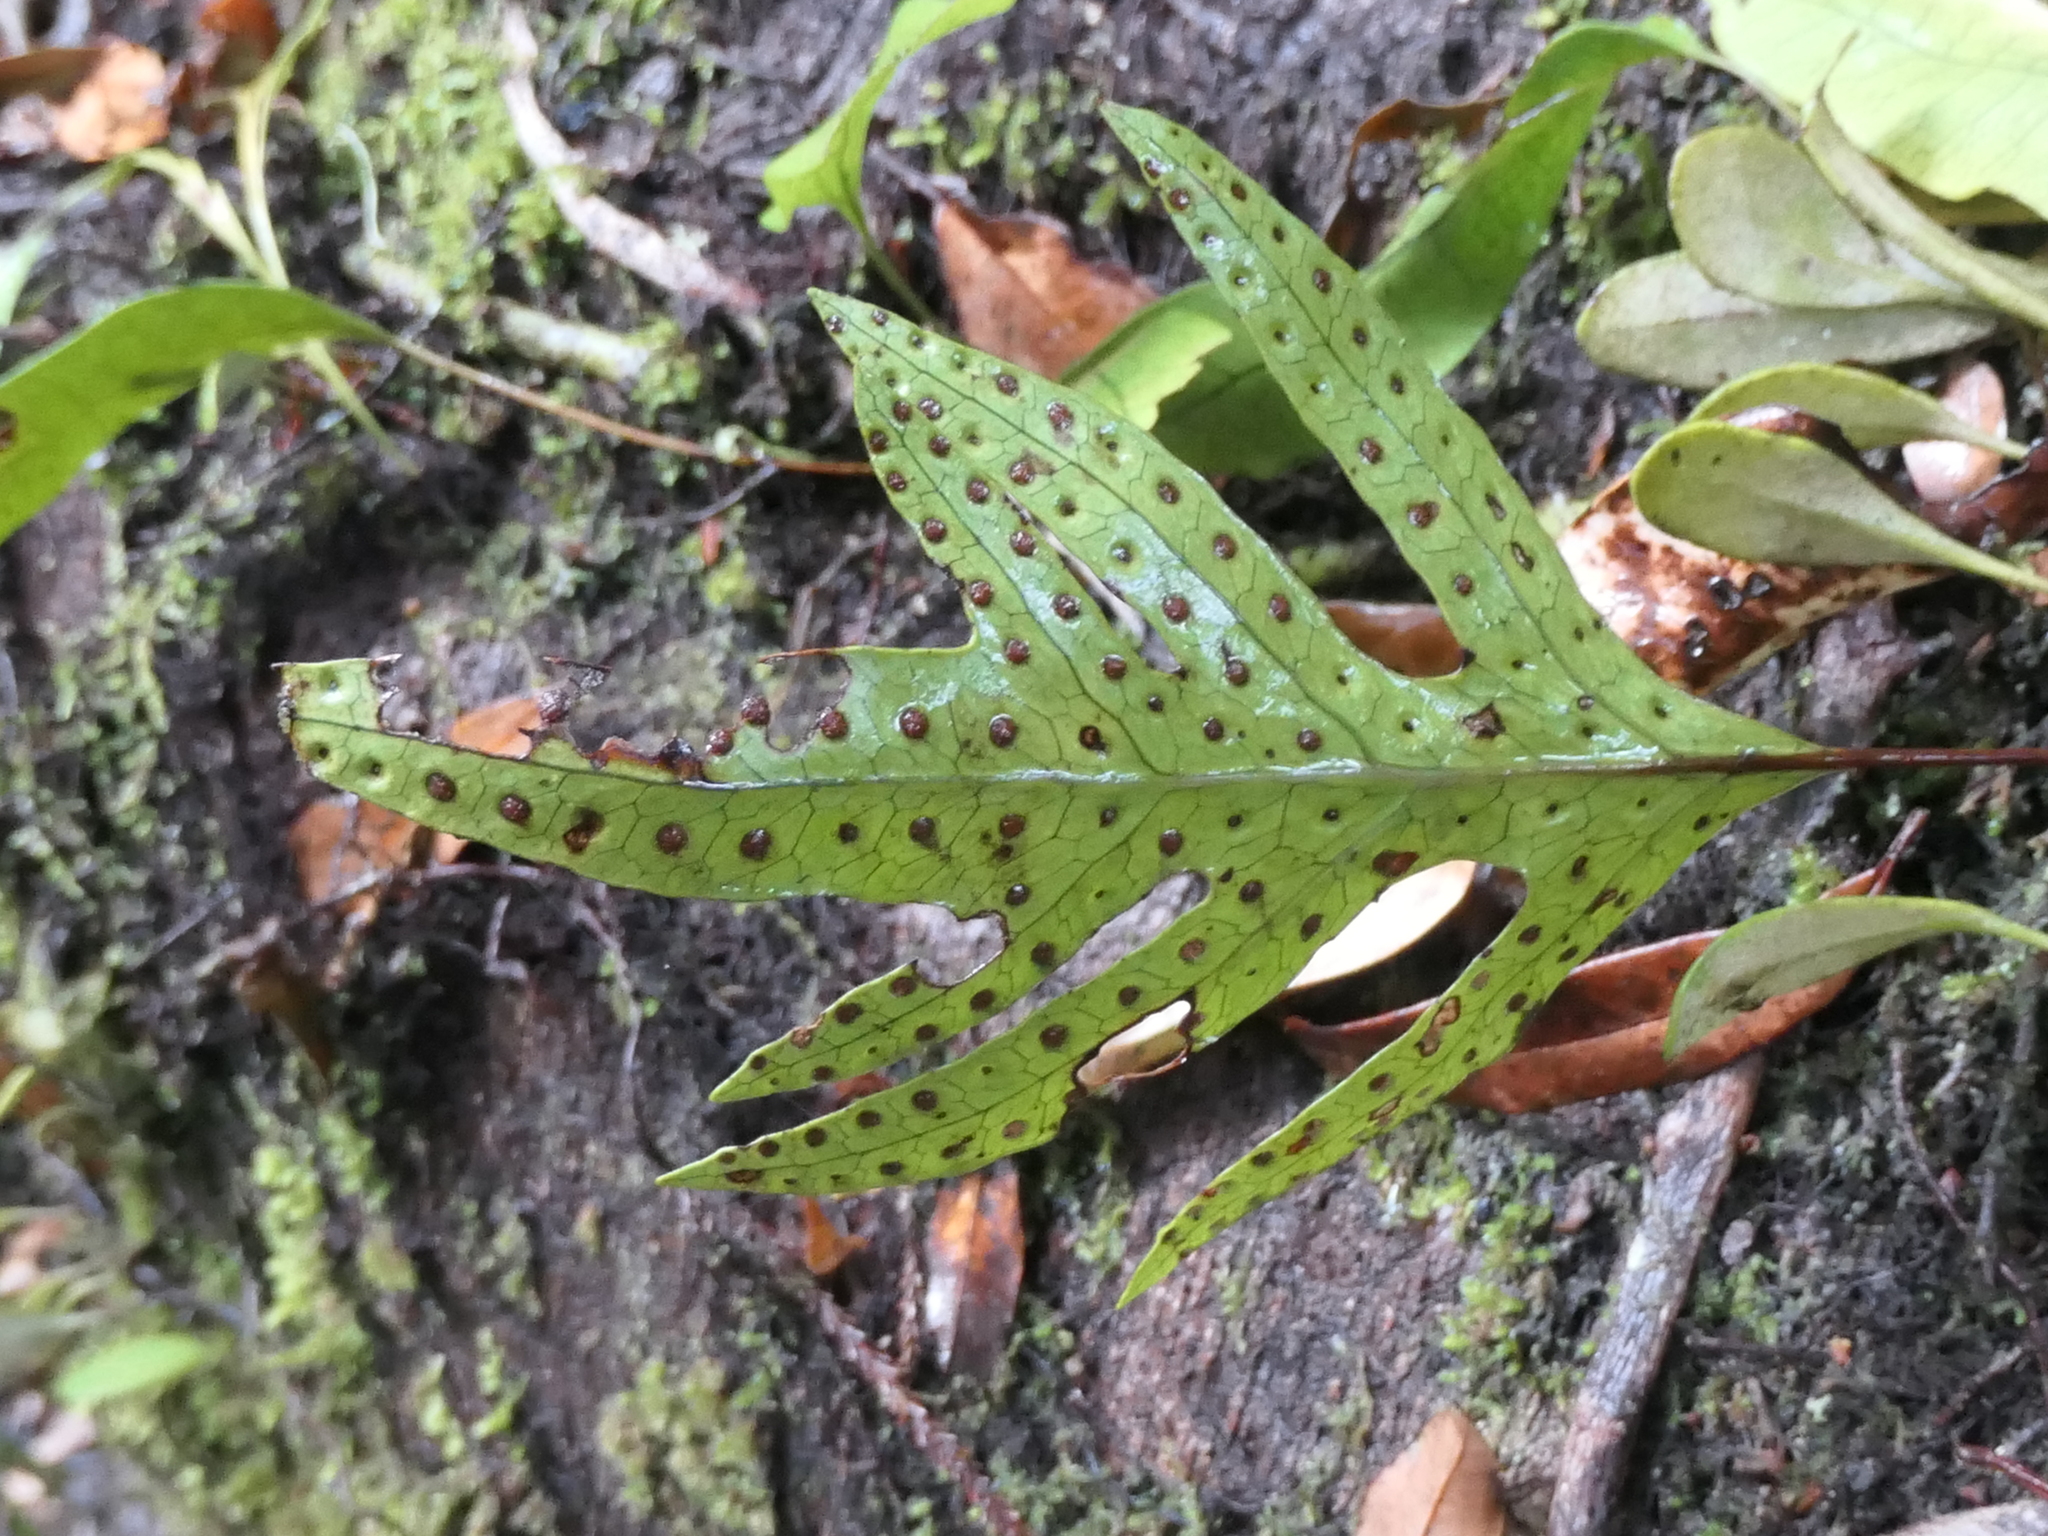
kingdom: Plantae
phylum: Tracheophyta
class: Polypodiopsida
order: Polypodiales
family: Polypodiaceae
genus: Lecanopteris
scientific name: Lecanopteris pustulata
